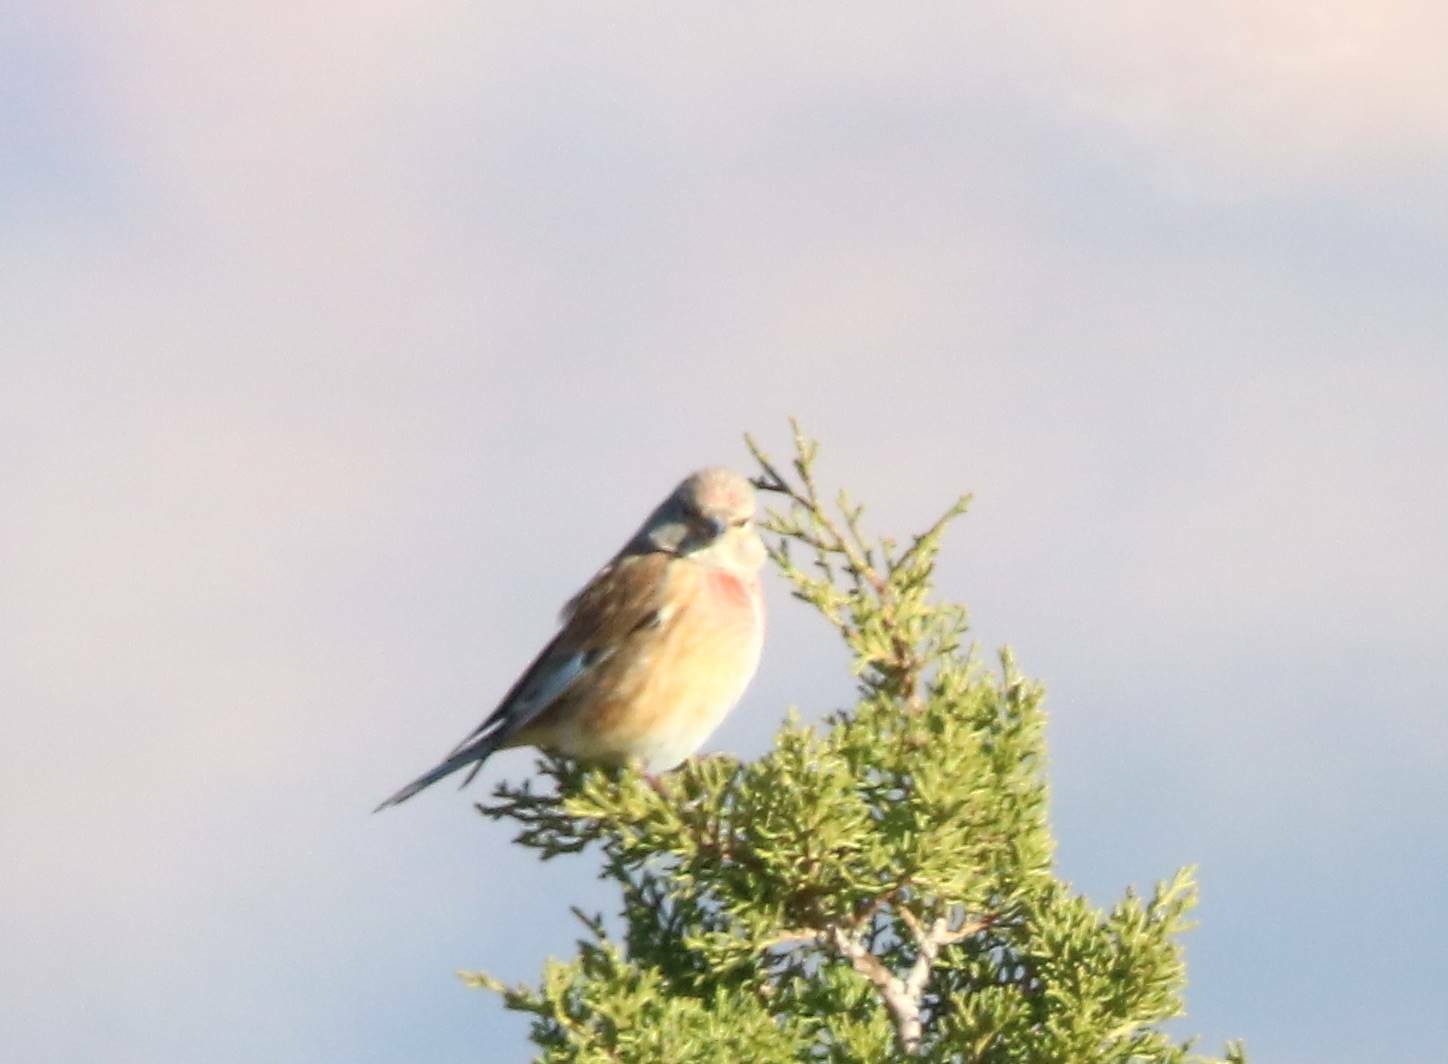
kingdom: Animalia
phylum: Chordata
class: Aves
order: Passeriformes
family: Fringillidae
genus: Linaria
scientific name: Linaria cannabina
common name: Common linnet
